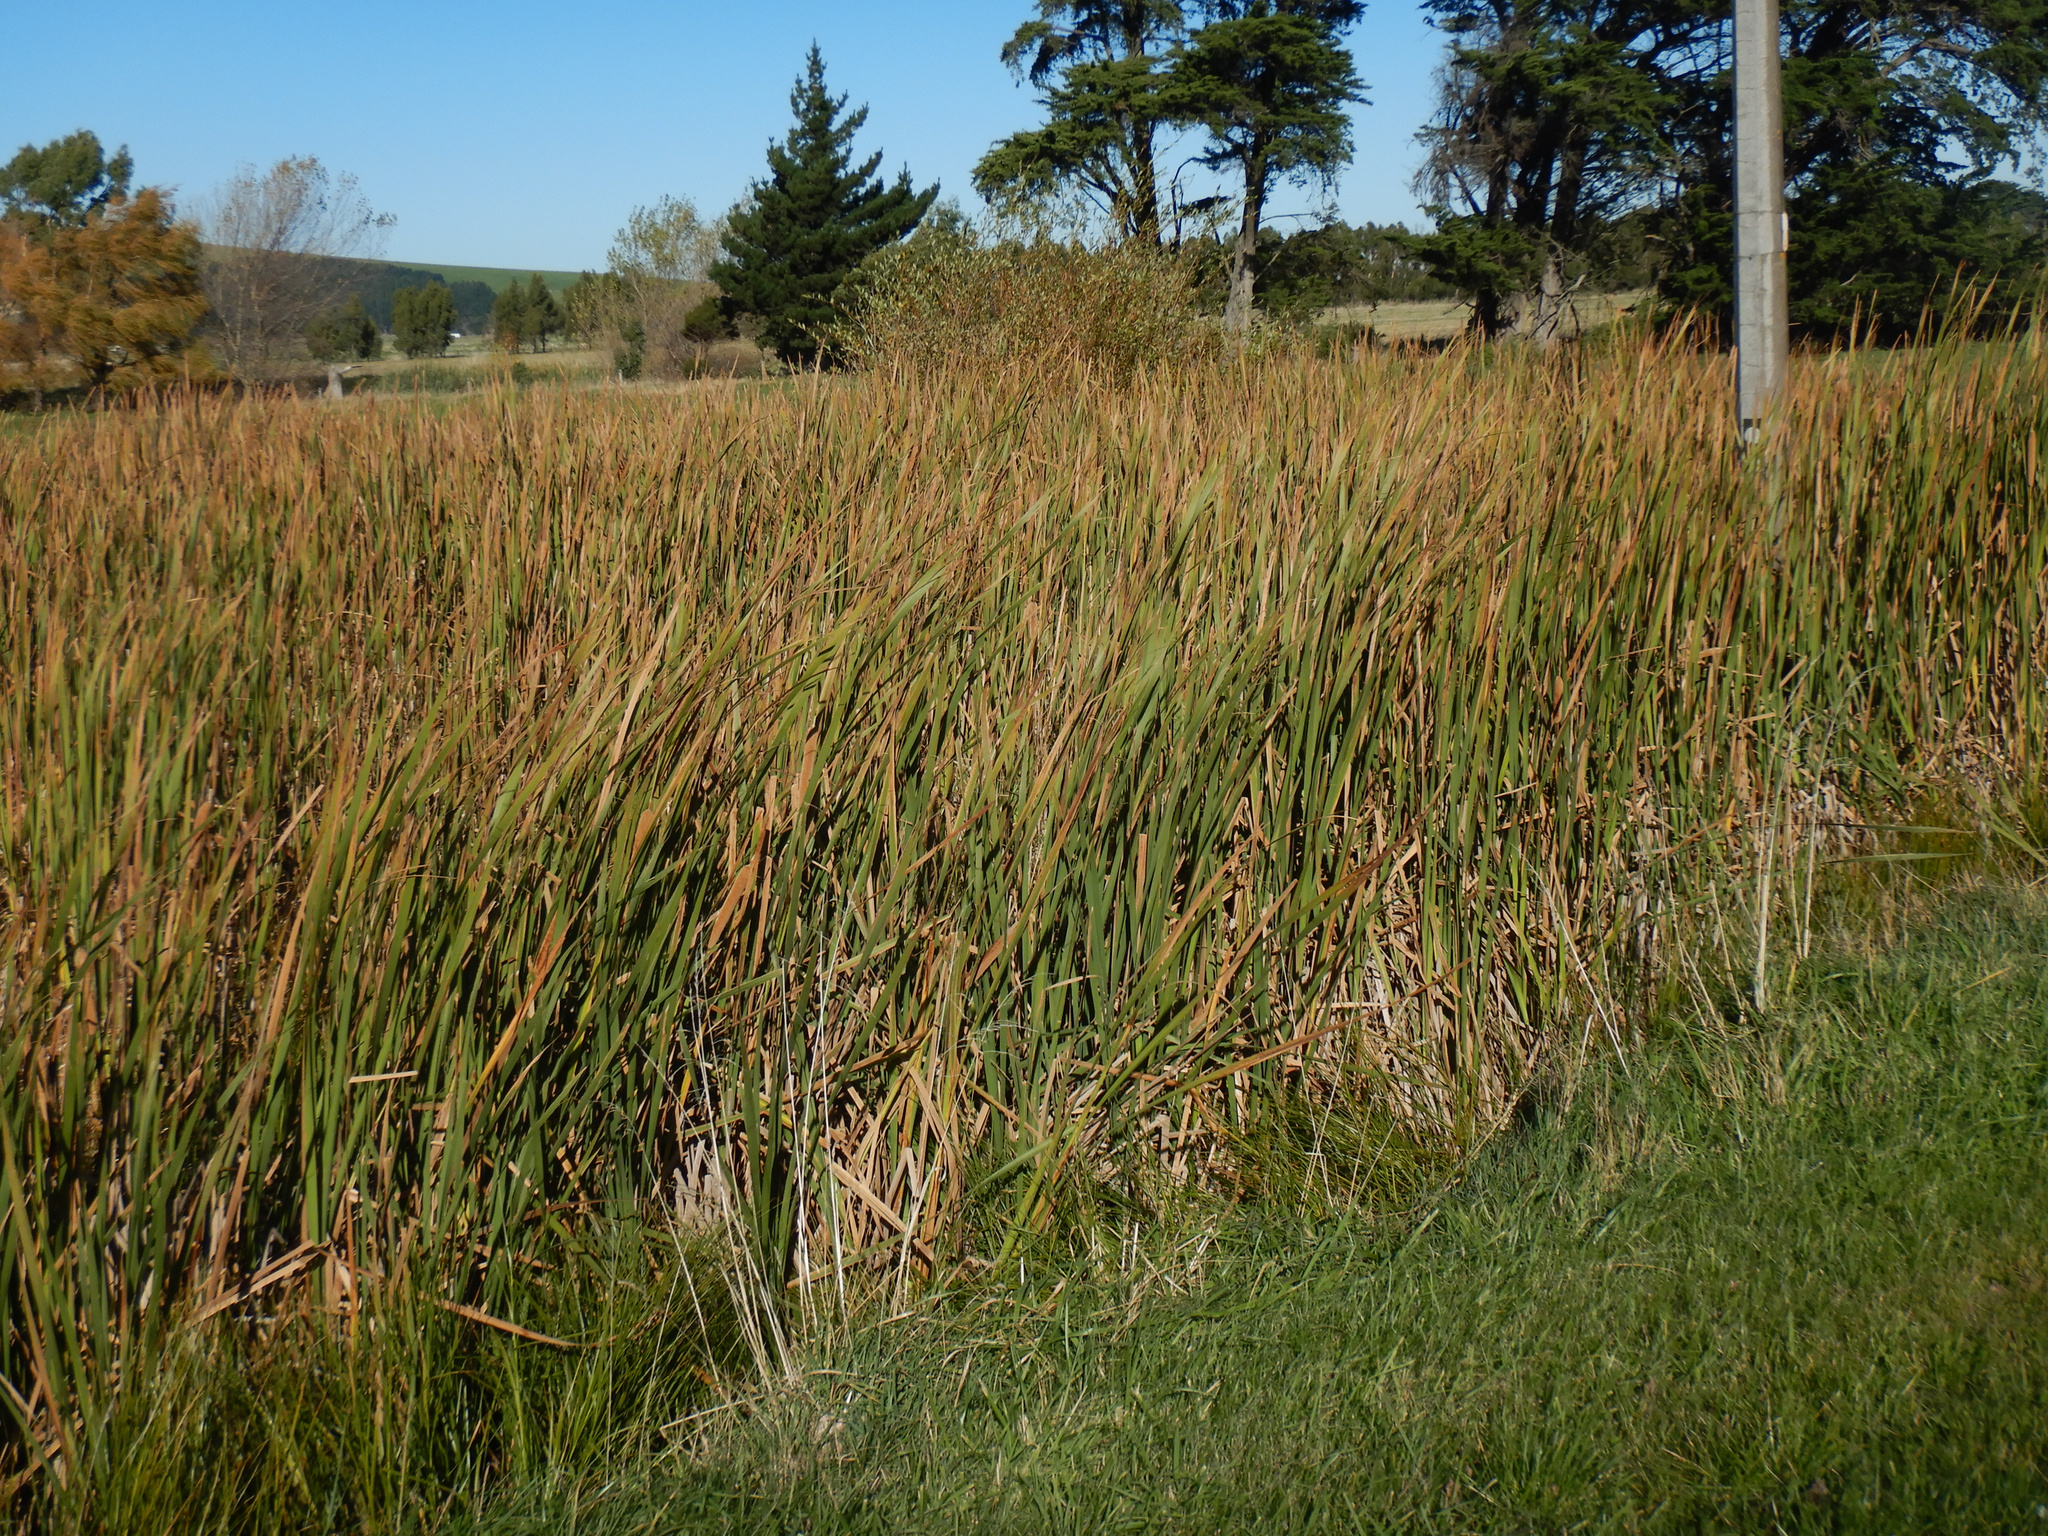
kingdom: Plantae
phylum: Tracheophyta
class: Liliopsida
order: Poales
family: Typhaceae
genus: Typha
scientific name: Typha orientalis
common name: Bullrush
